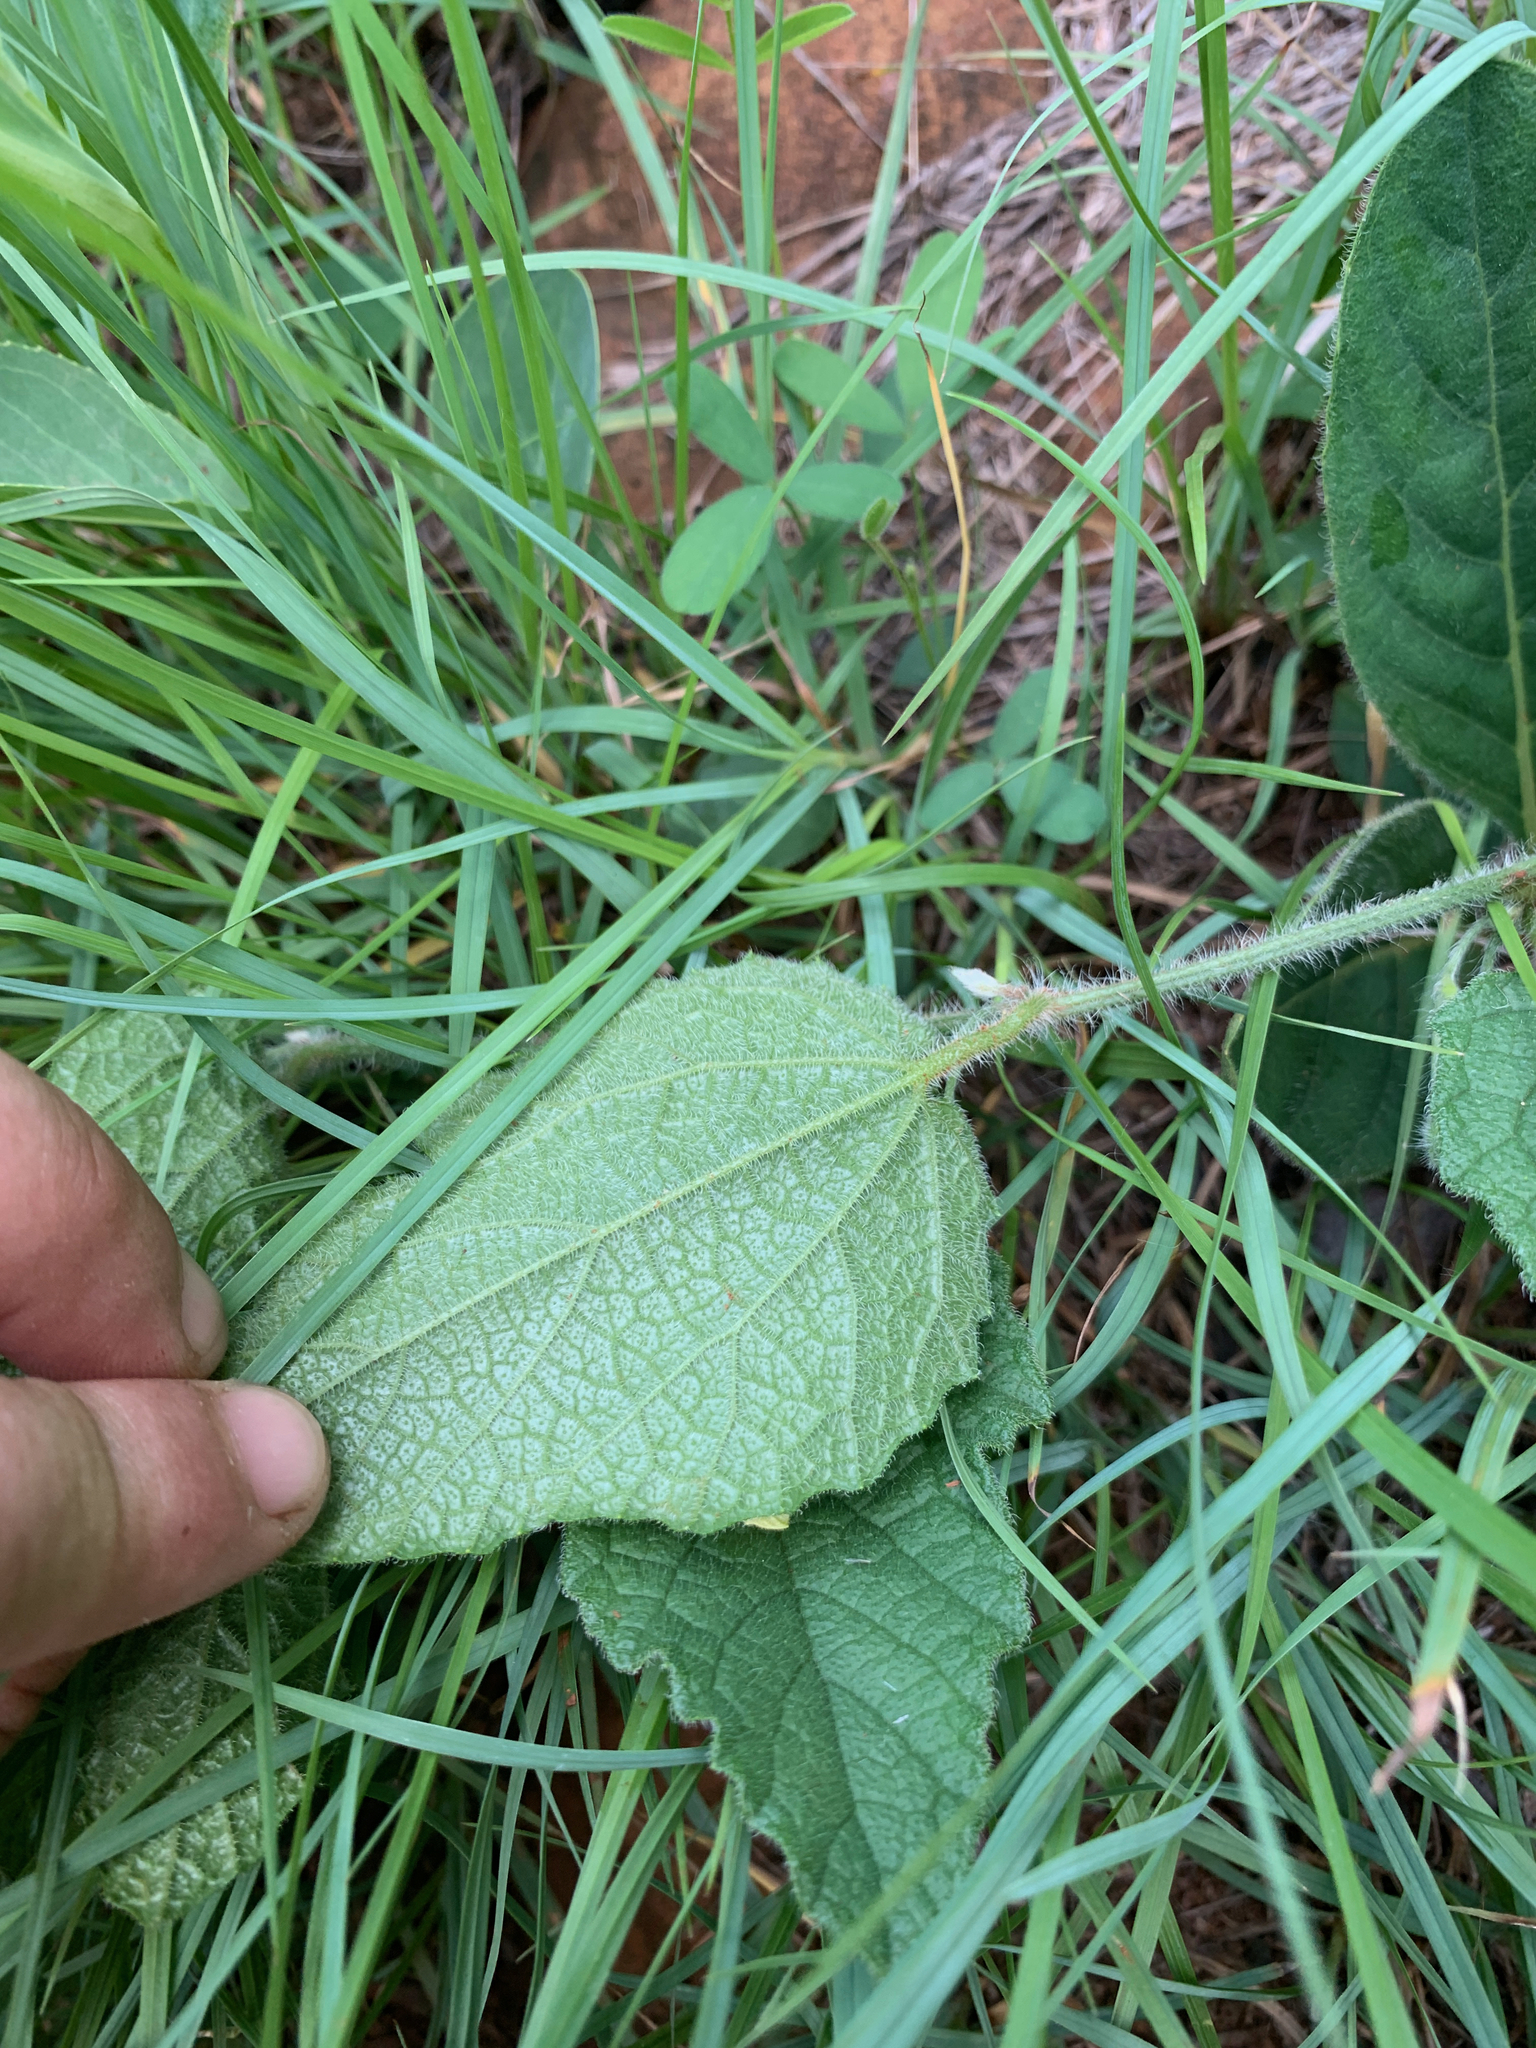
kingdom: Plantae
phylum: Tracheophyta
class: Magnoliopsida
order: Cucurbitales
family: Cucurbitaceae
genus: Cucumis
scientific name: Cucumis hirsutus
